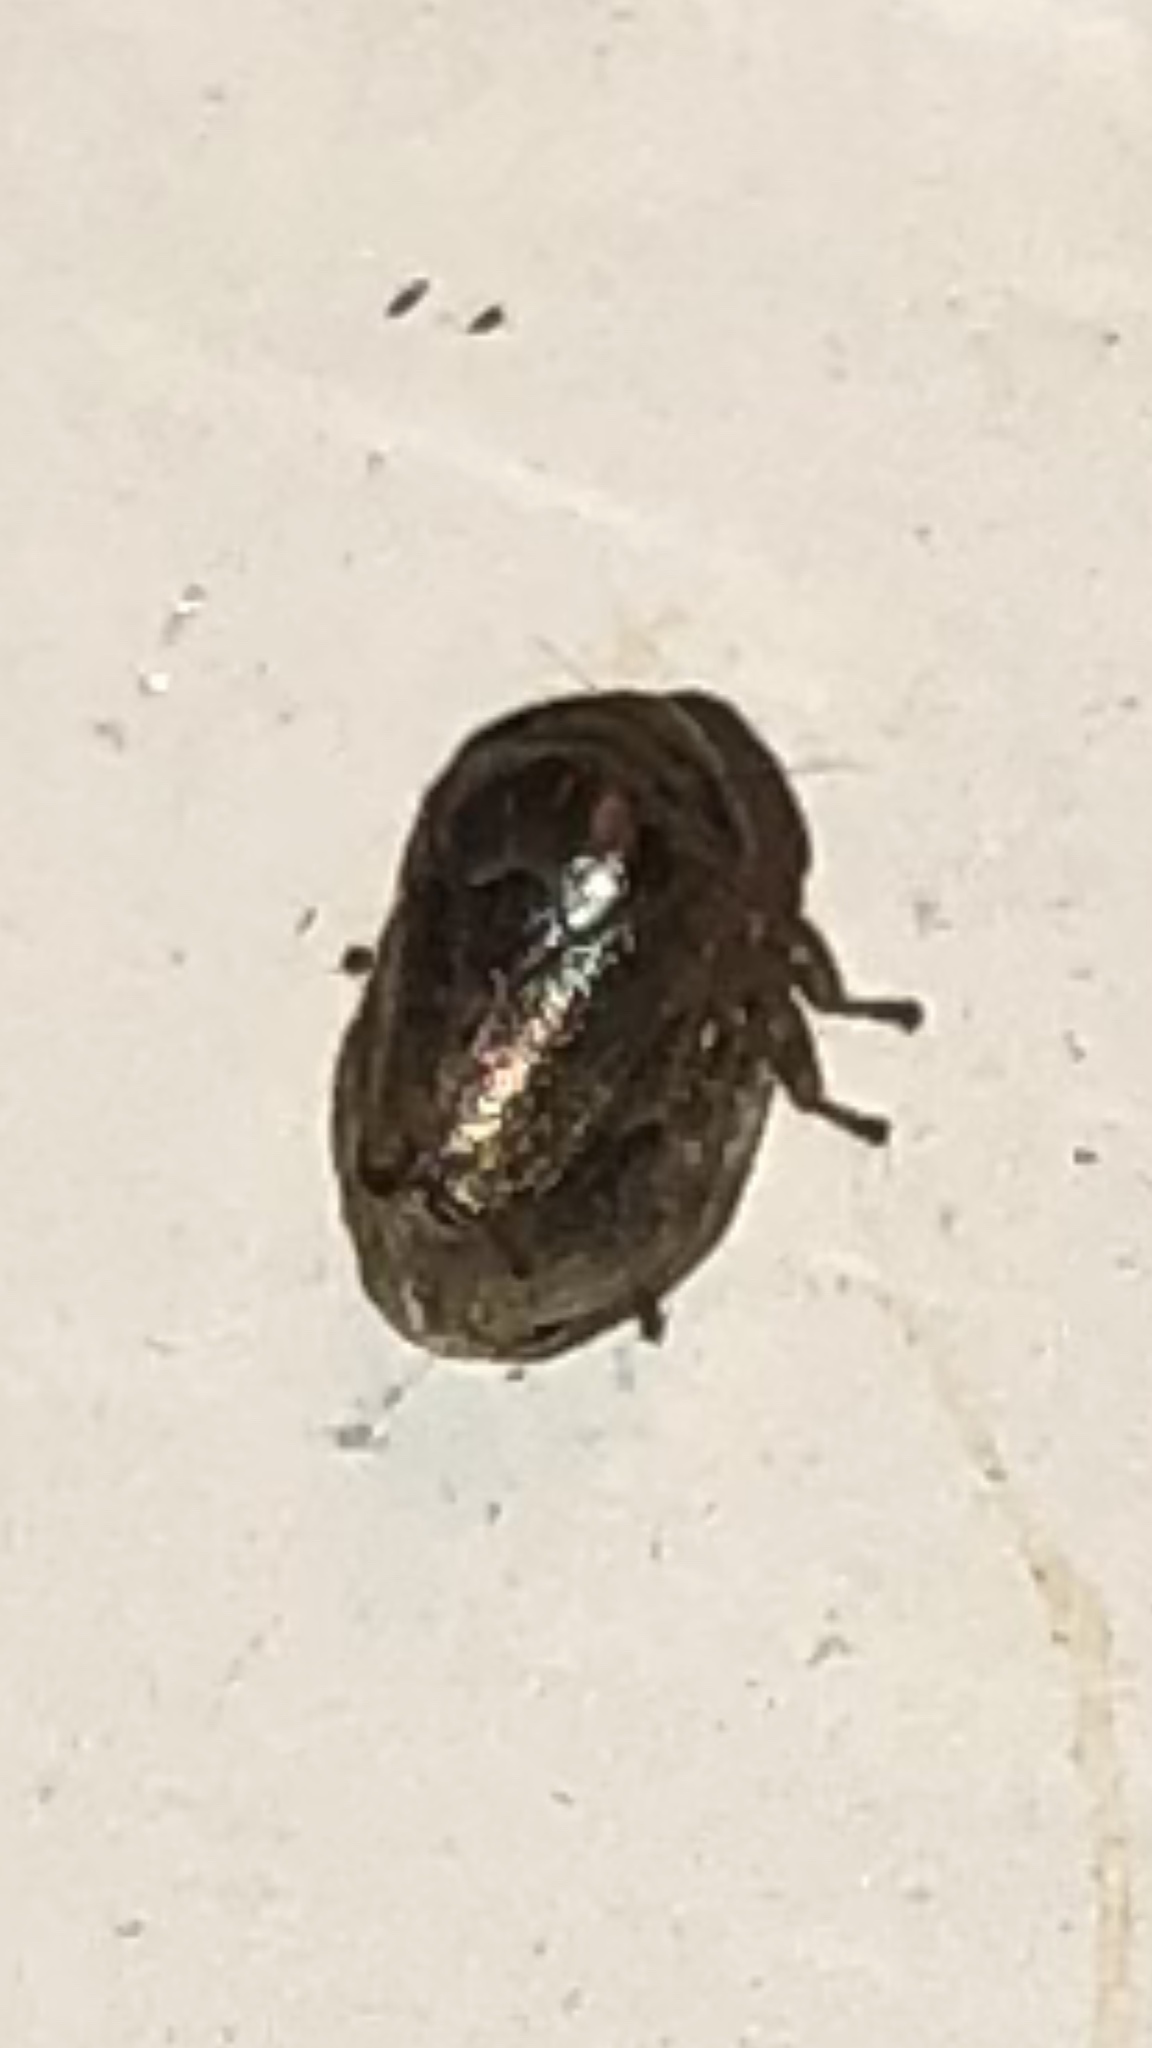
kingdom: Animalia
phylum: Arthropoda
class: Insecta
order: Hemiptera
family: Clastopteridae
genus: Clastoptera
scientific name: Clastoptera xanthocephala
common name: Sunflower spittlebug
